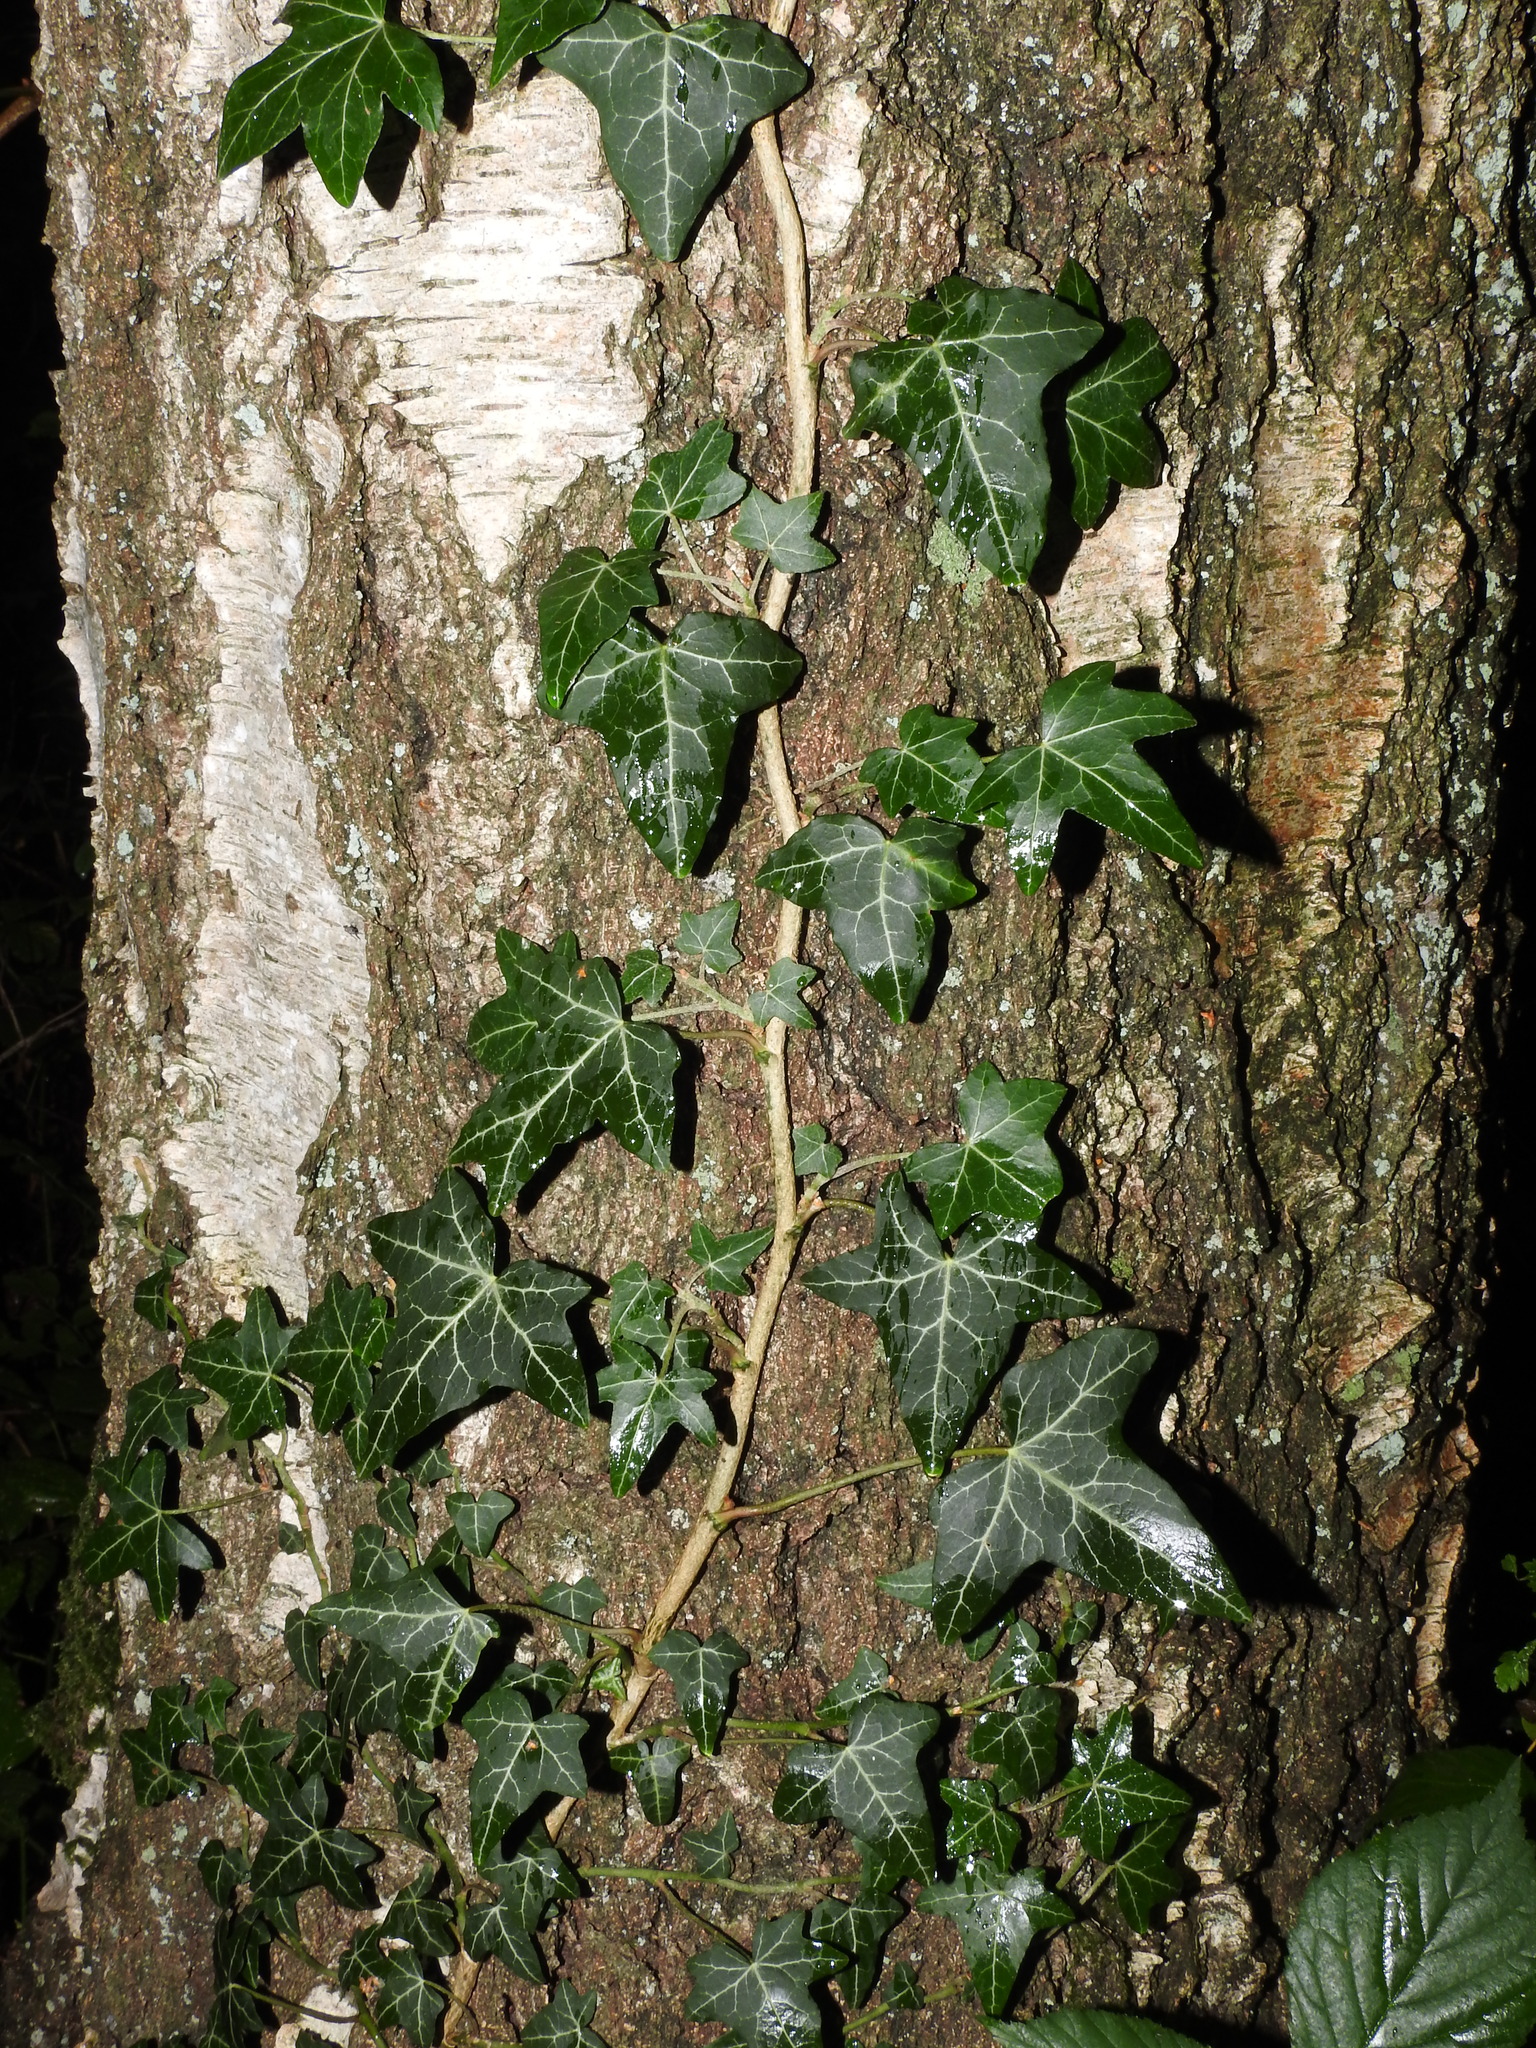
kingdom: Plantae
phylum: Tracheophyta
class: Magnoliopsida
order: Apiales
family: Araliaceae
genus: Hedera
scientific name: Hedera helix
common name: Ivy
